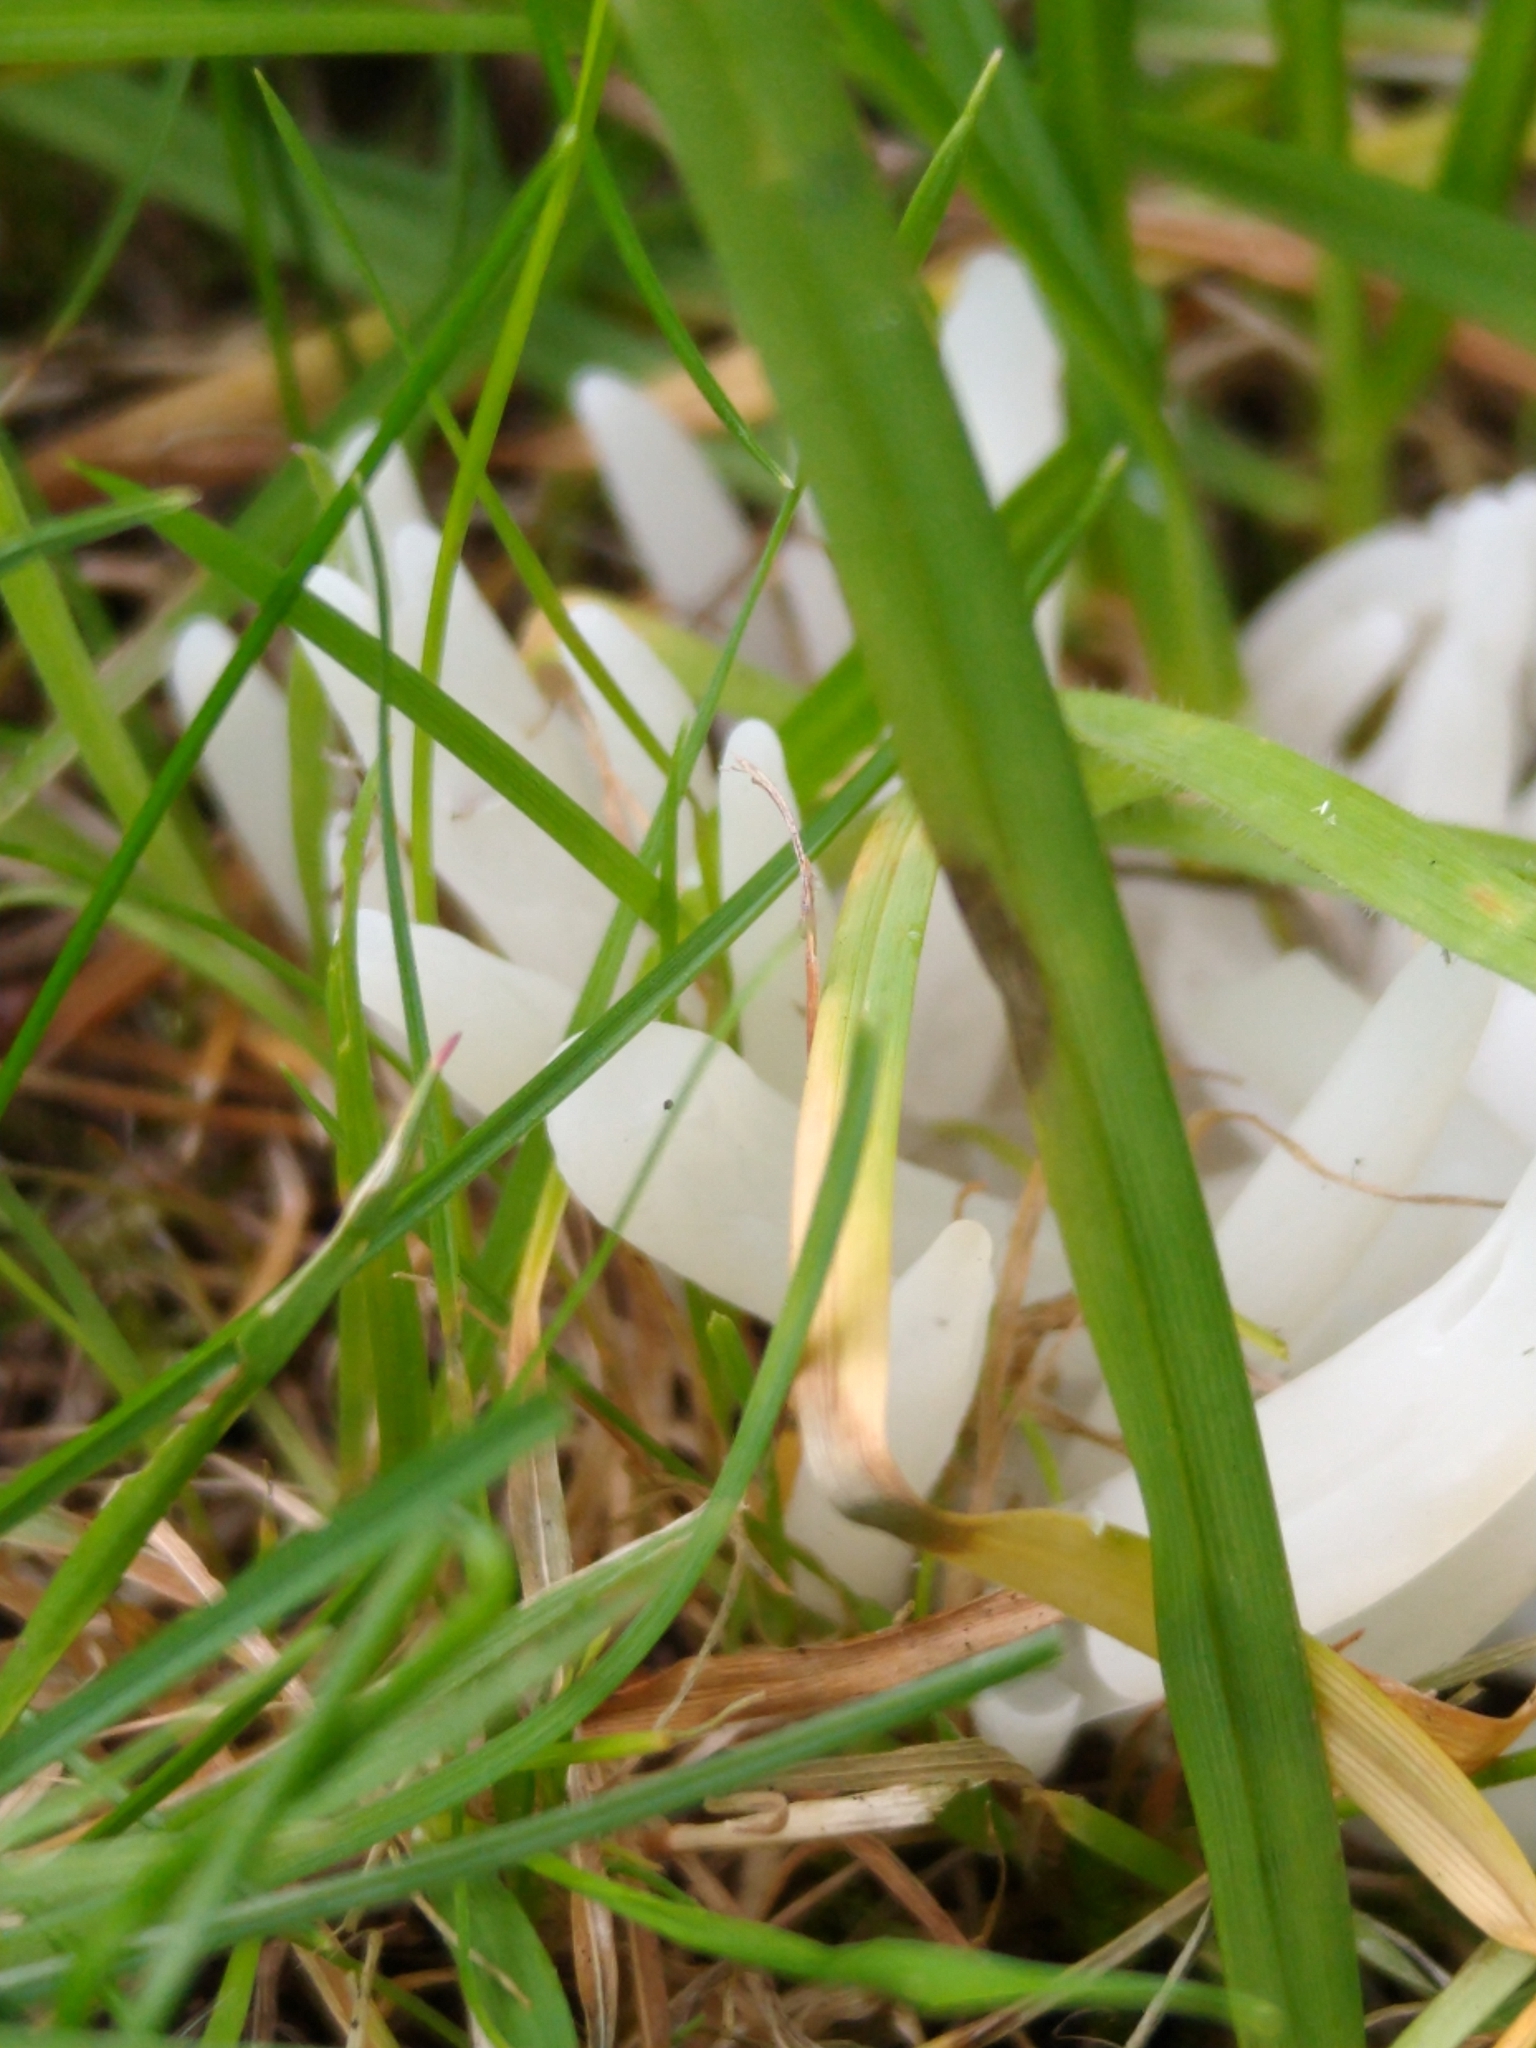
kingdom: Fungi
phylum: Basidiomycota
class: Agaricomycetes
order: Agaricales
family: Clavariaceae
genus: Clavaria
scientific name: Clavaria fragilis
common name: White spindles
